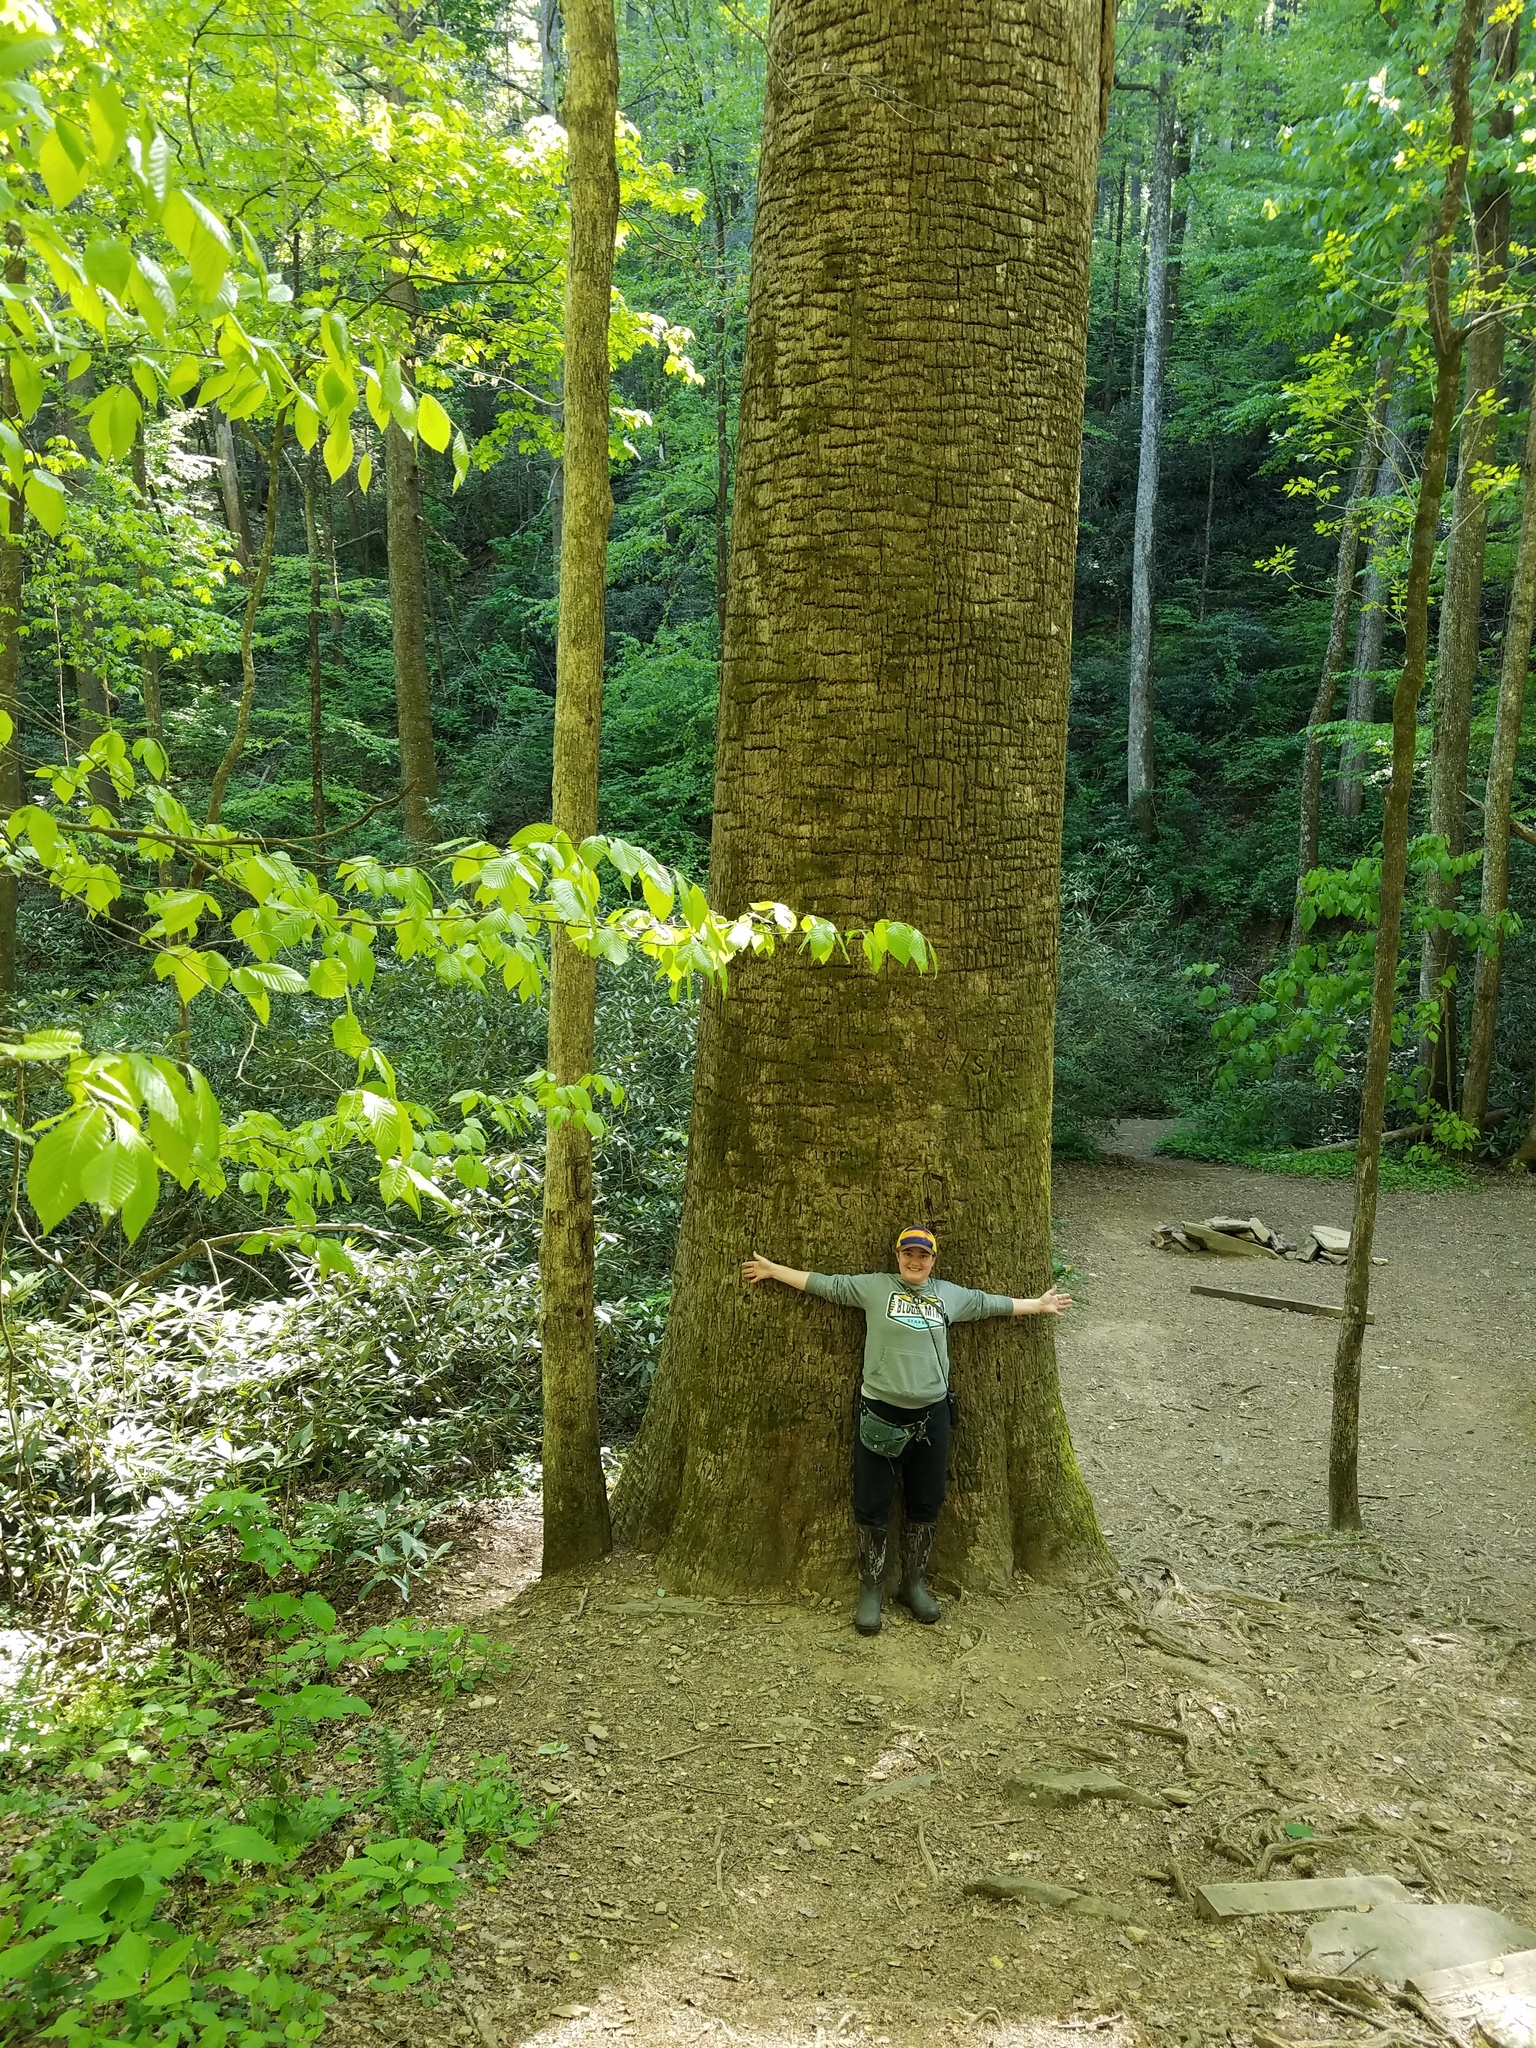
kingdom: Plantae
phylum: Tracheophyta
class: Magnoliopsida
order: Magnoliales
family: Magnoliaceae
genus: Liriodendron
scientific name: Liriodendron tulipifera
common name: Tulip tree
